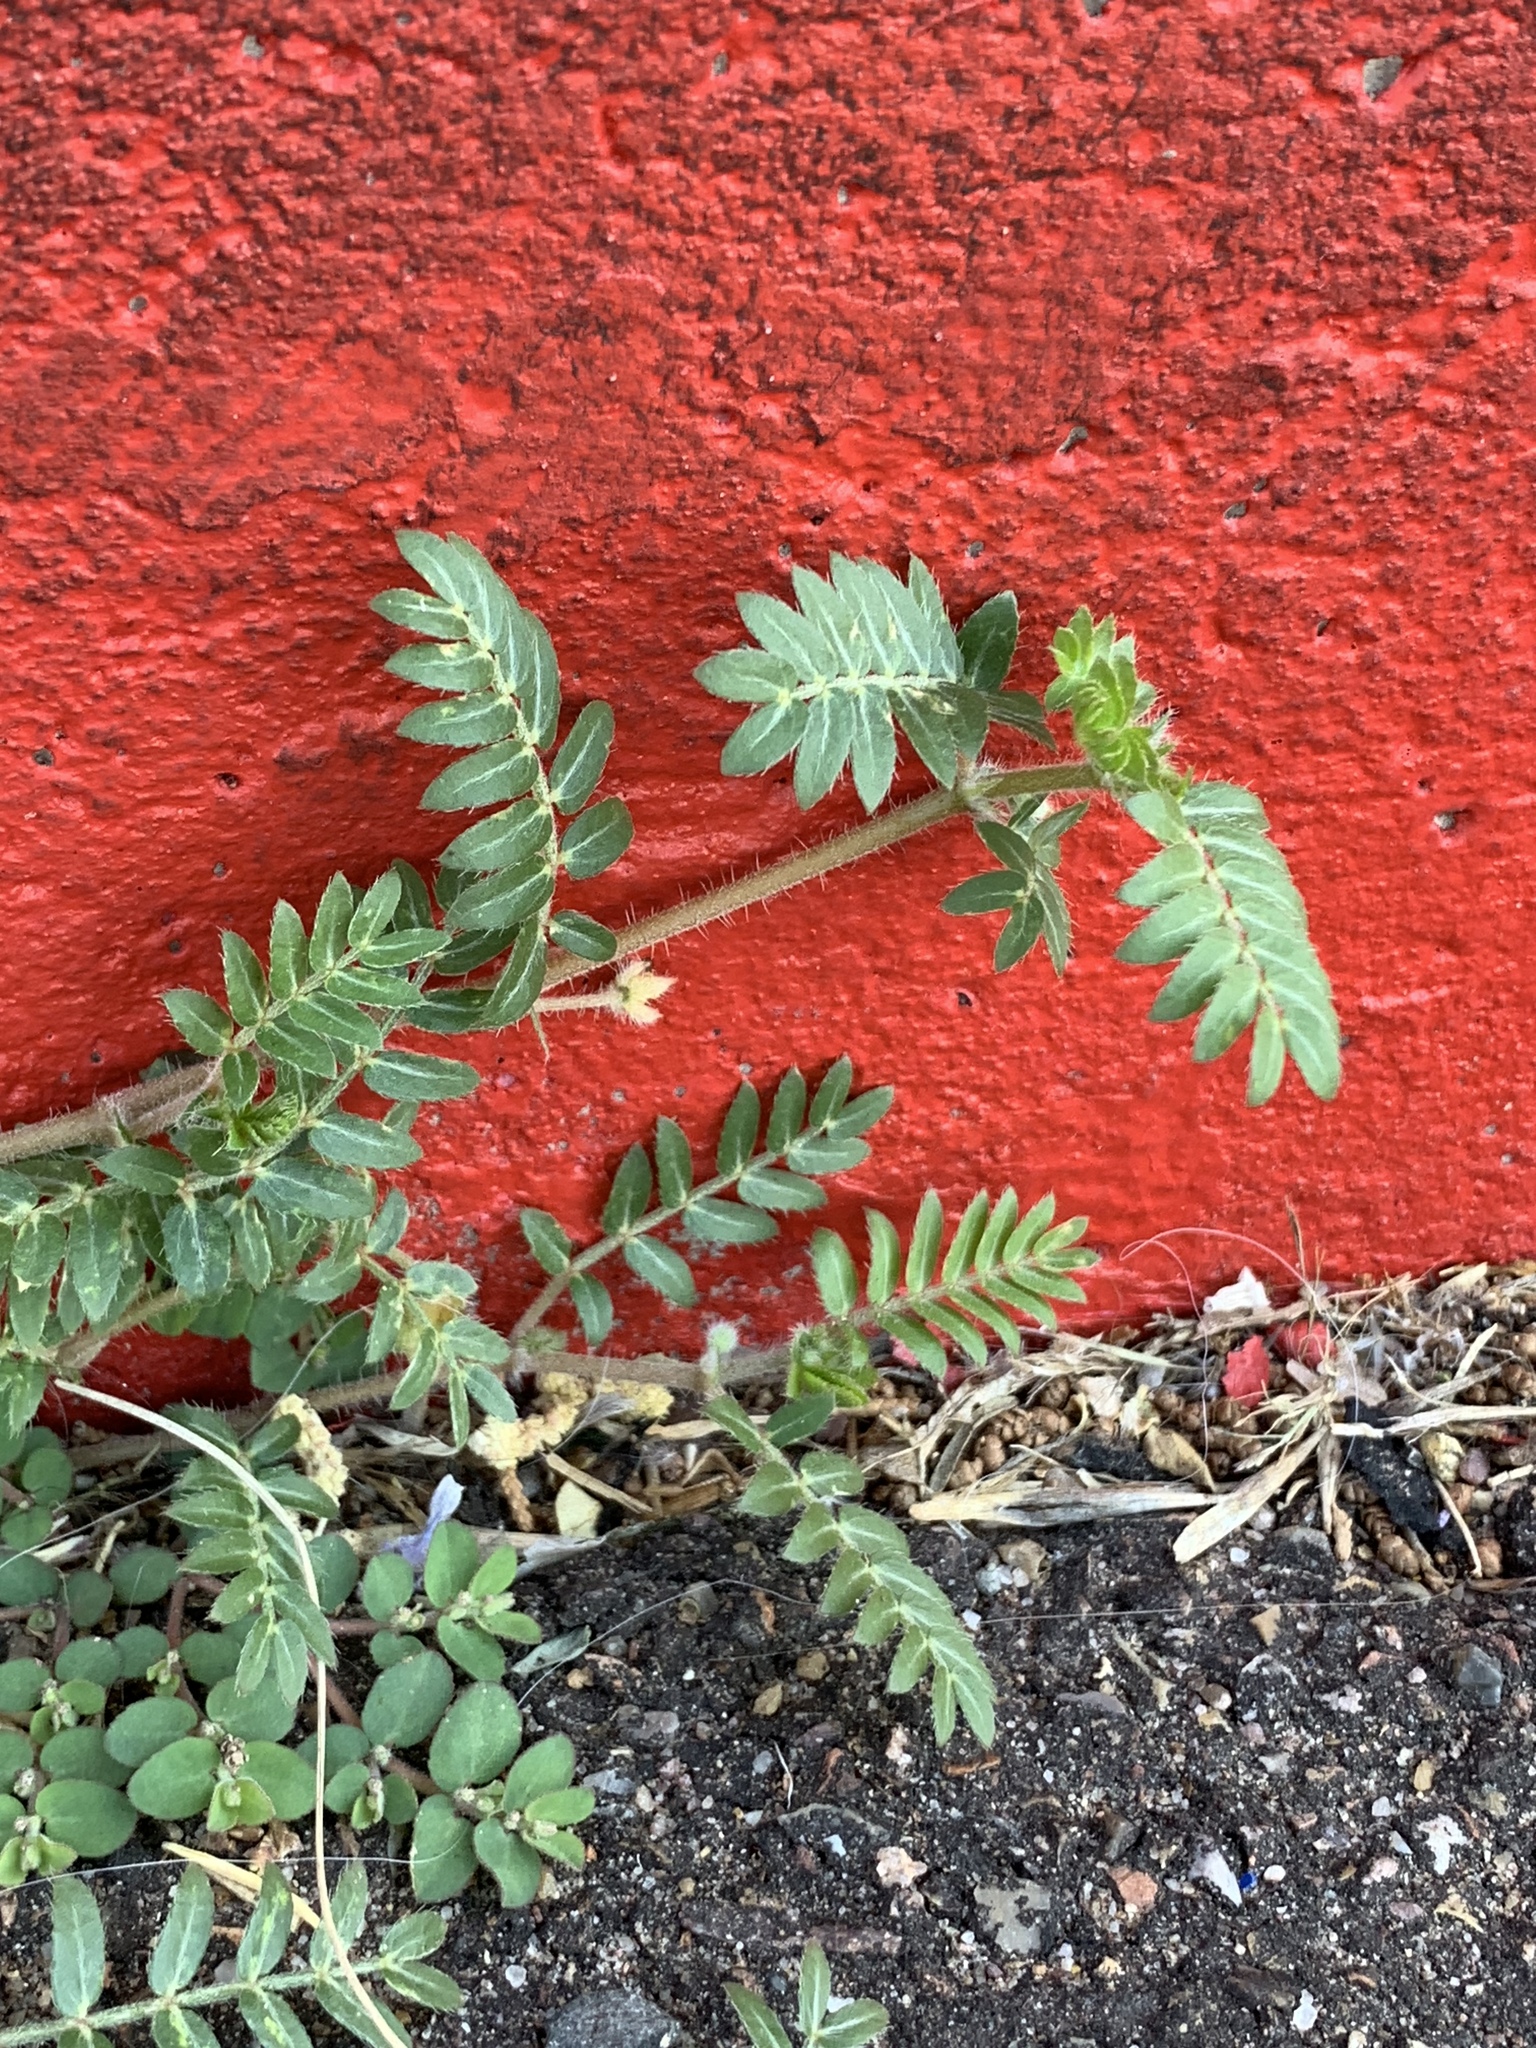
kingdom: Plantae
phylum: Tracheophyta
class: Magnoliopsida
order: Zygophyllales
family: Zygophyllaceae
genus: Tribulus
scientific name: Tribulus terrestris
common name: Puncturevine
